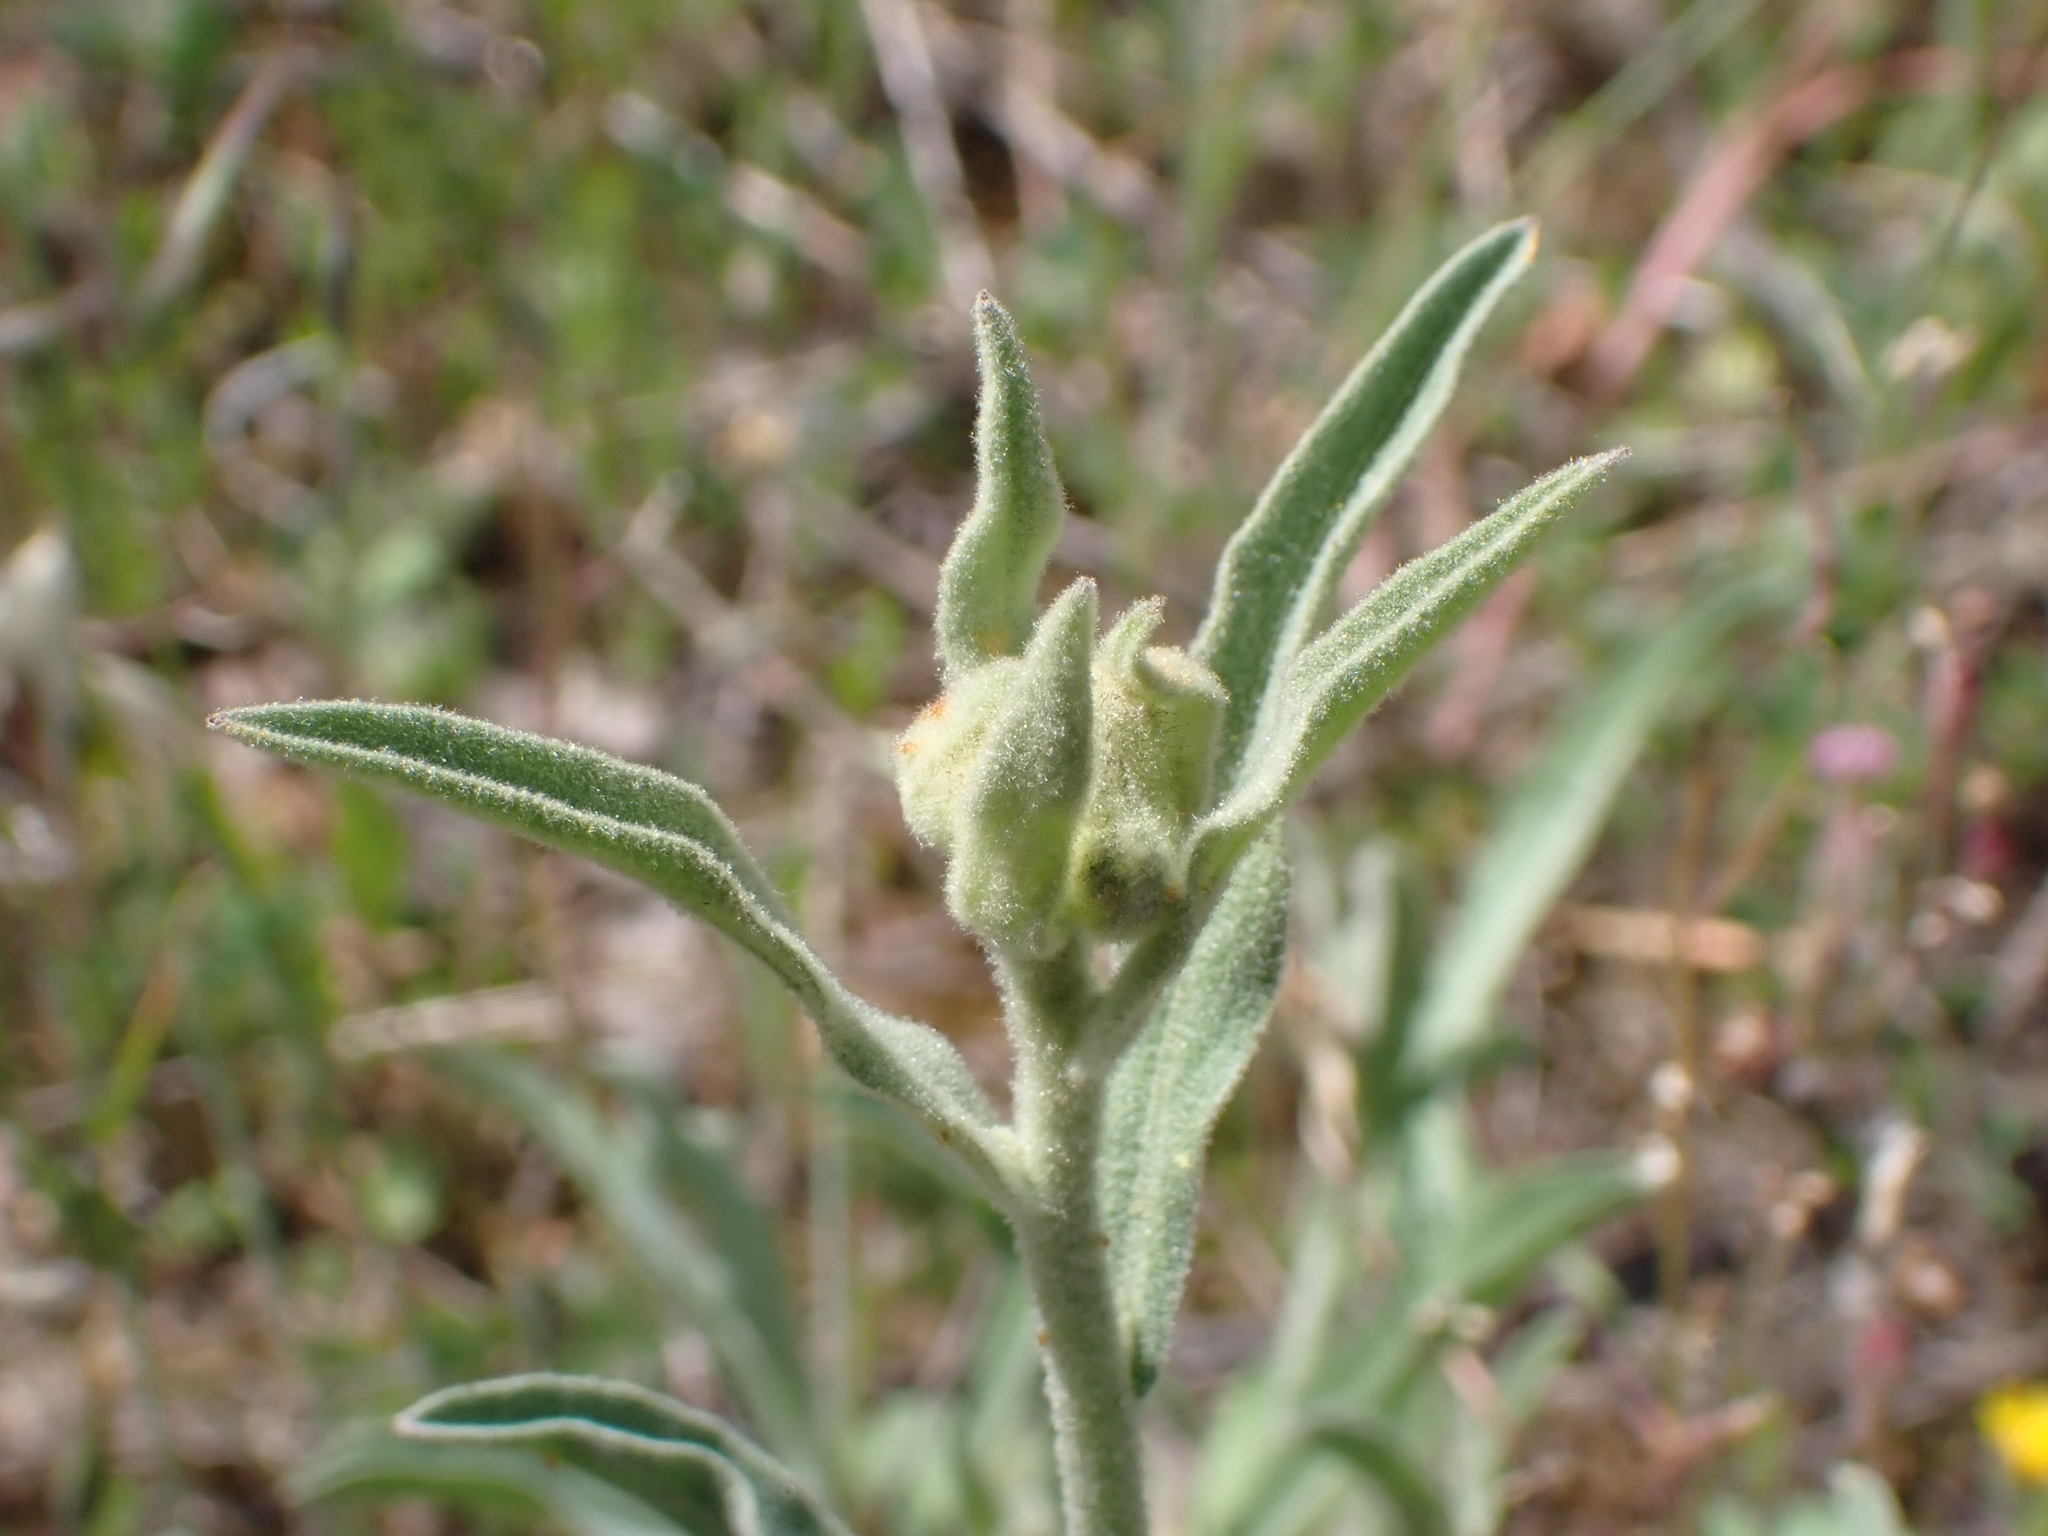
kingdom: Plantae
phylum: Tracheophyta
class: Magnoliopsida
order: Asterales
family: Asteraceae
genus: Andryala
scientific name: Andryala integrifolia
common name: Common andryala
